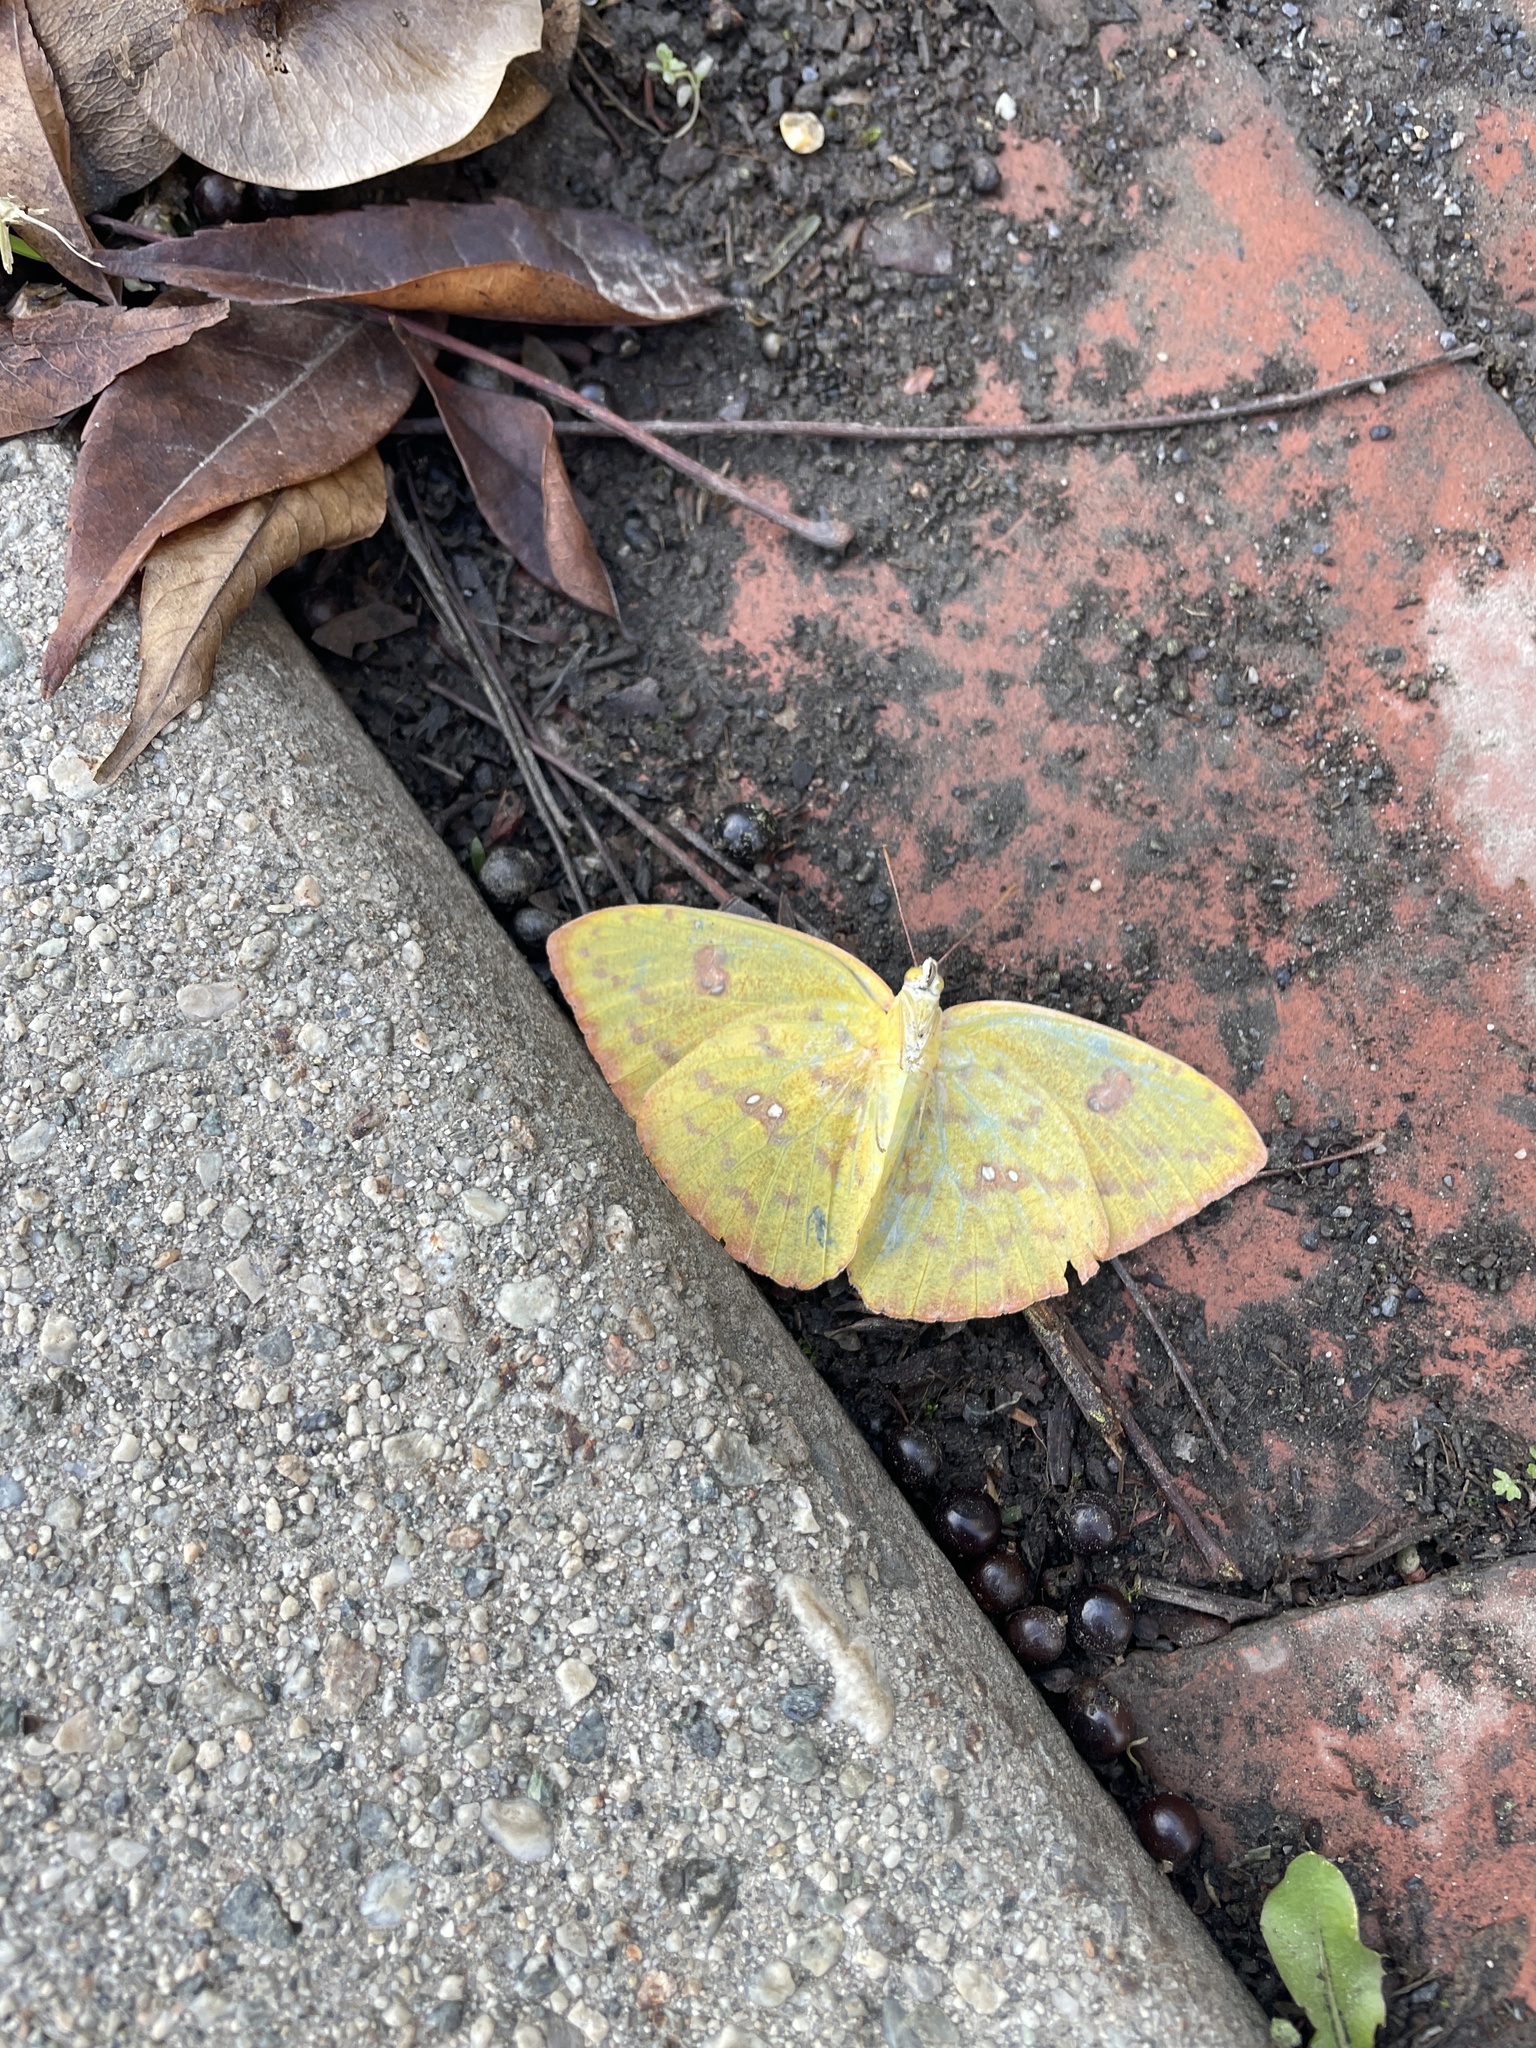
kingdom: Animalia
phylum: Arthropoda
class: Insecta
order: Lepidoptera
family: Pieridae
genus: Phoebis
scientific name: Phoebis sennae
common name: Cloudless sulphur
